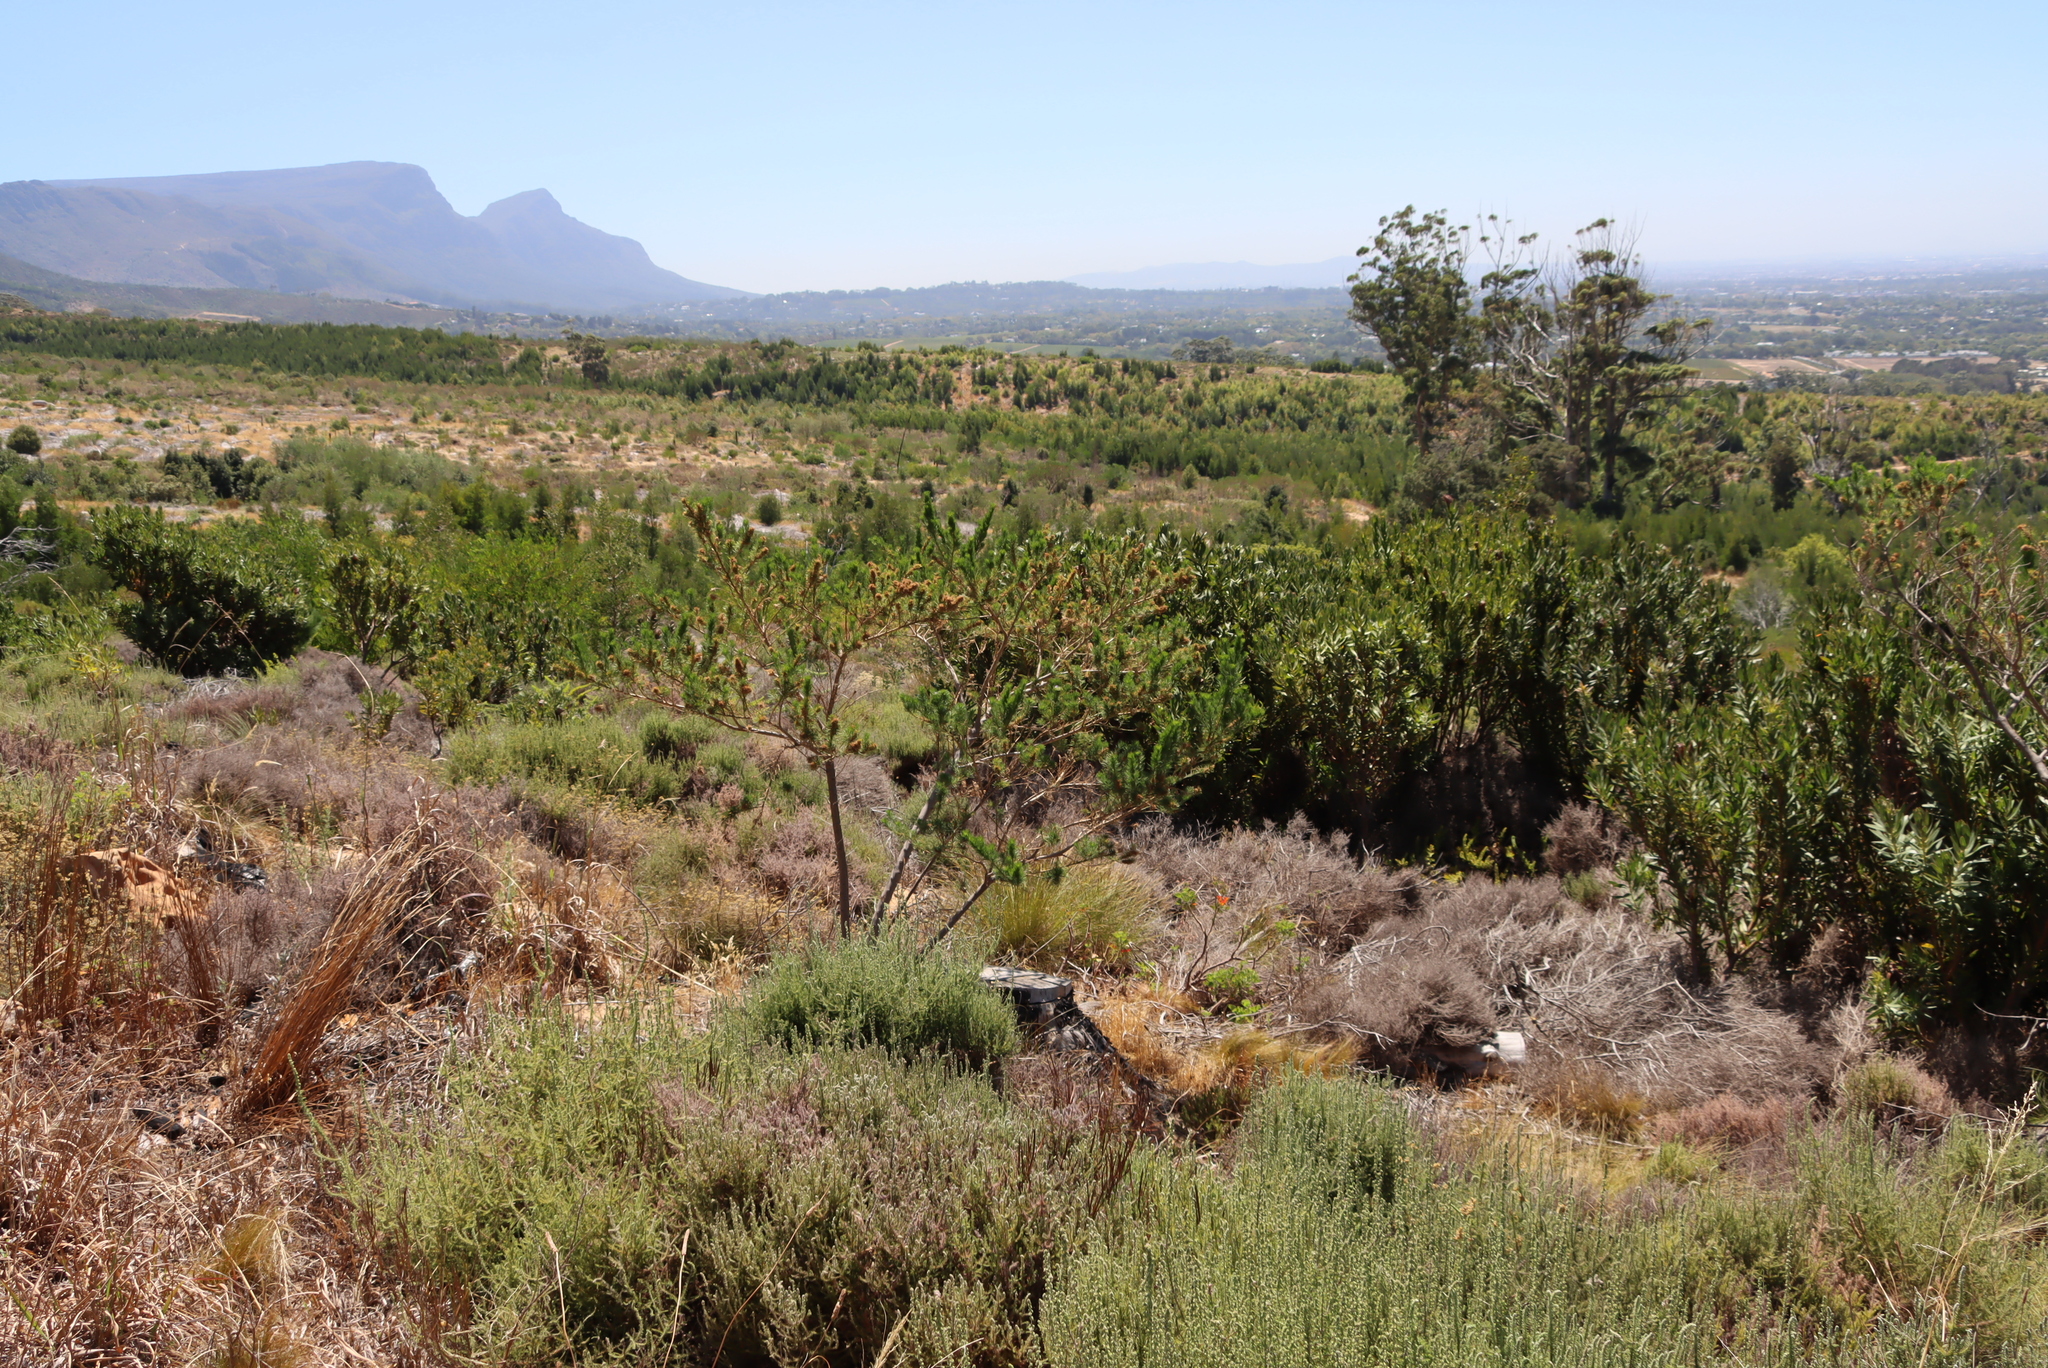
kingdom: Plantae
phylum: Tracheophyta
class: Magnoliopsida
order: Fabales
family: Fabaceae
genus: Psoralea
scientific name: Psoralea pinnata
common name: African scurfpea
